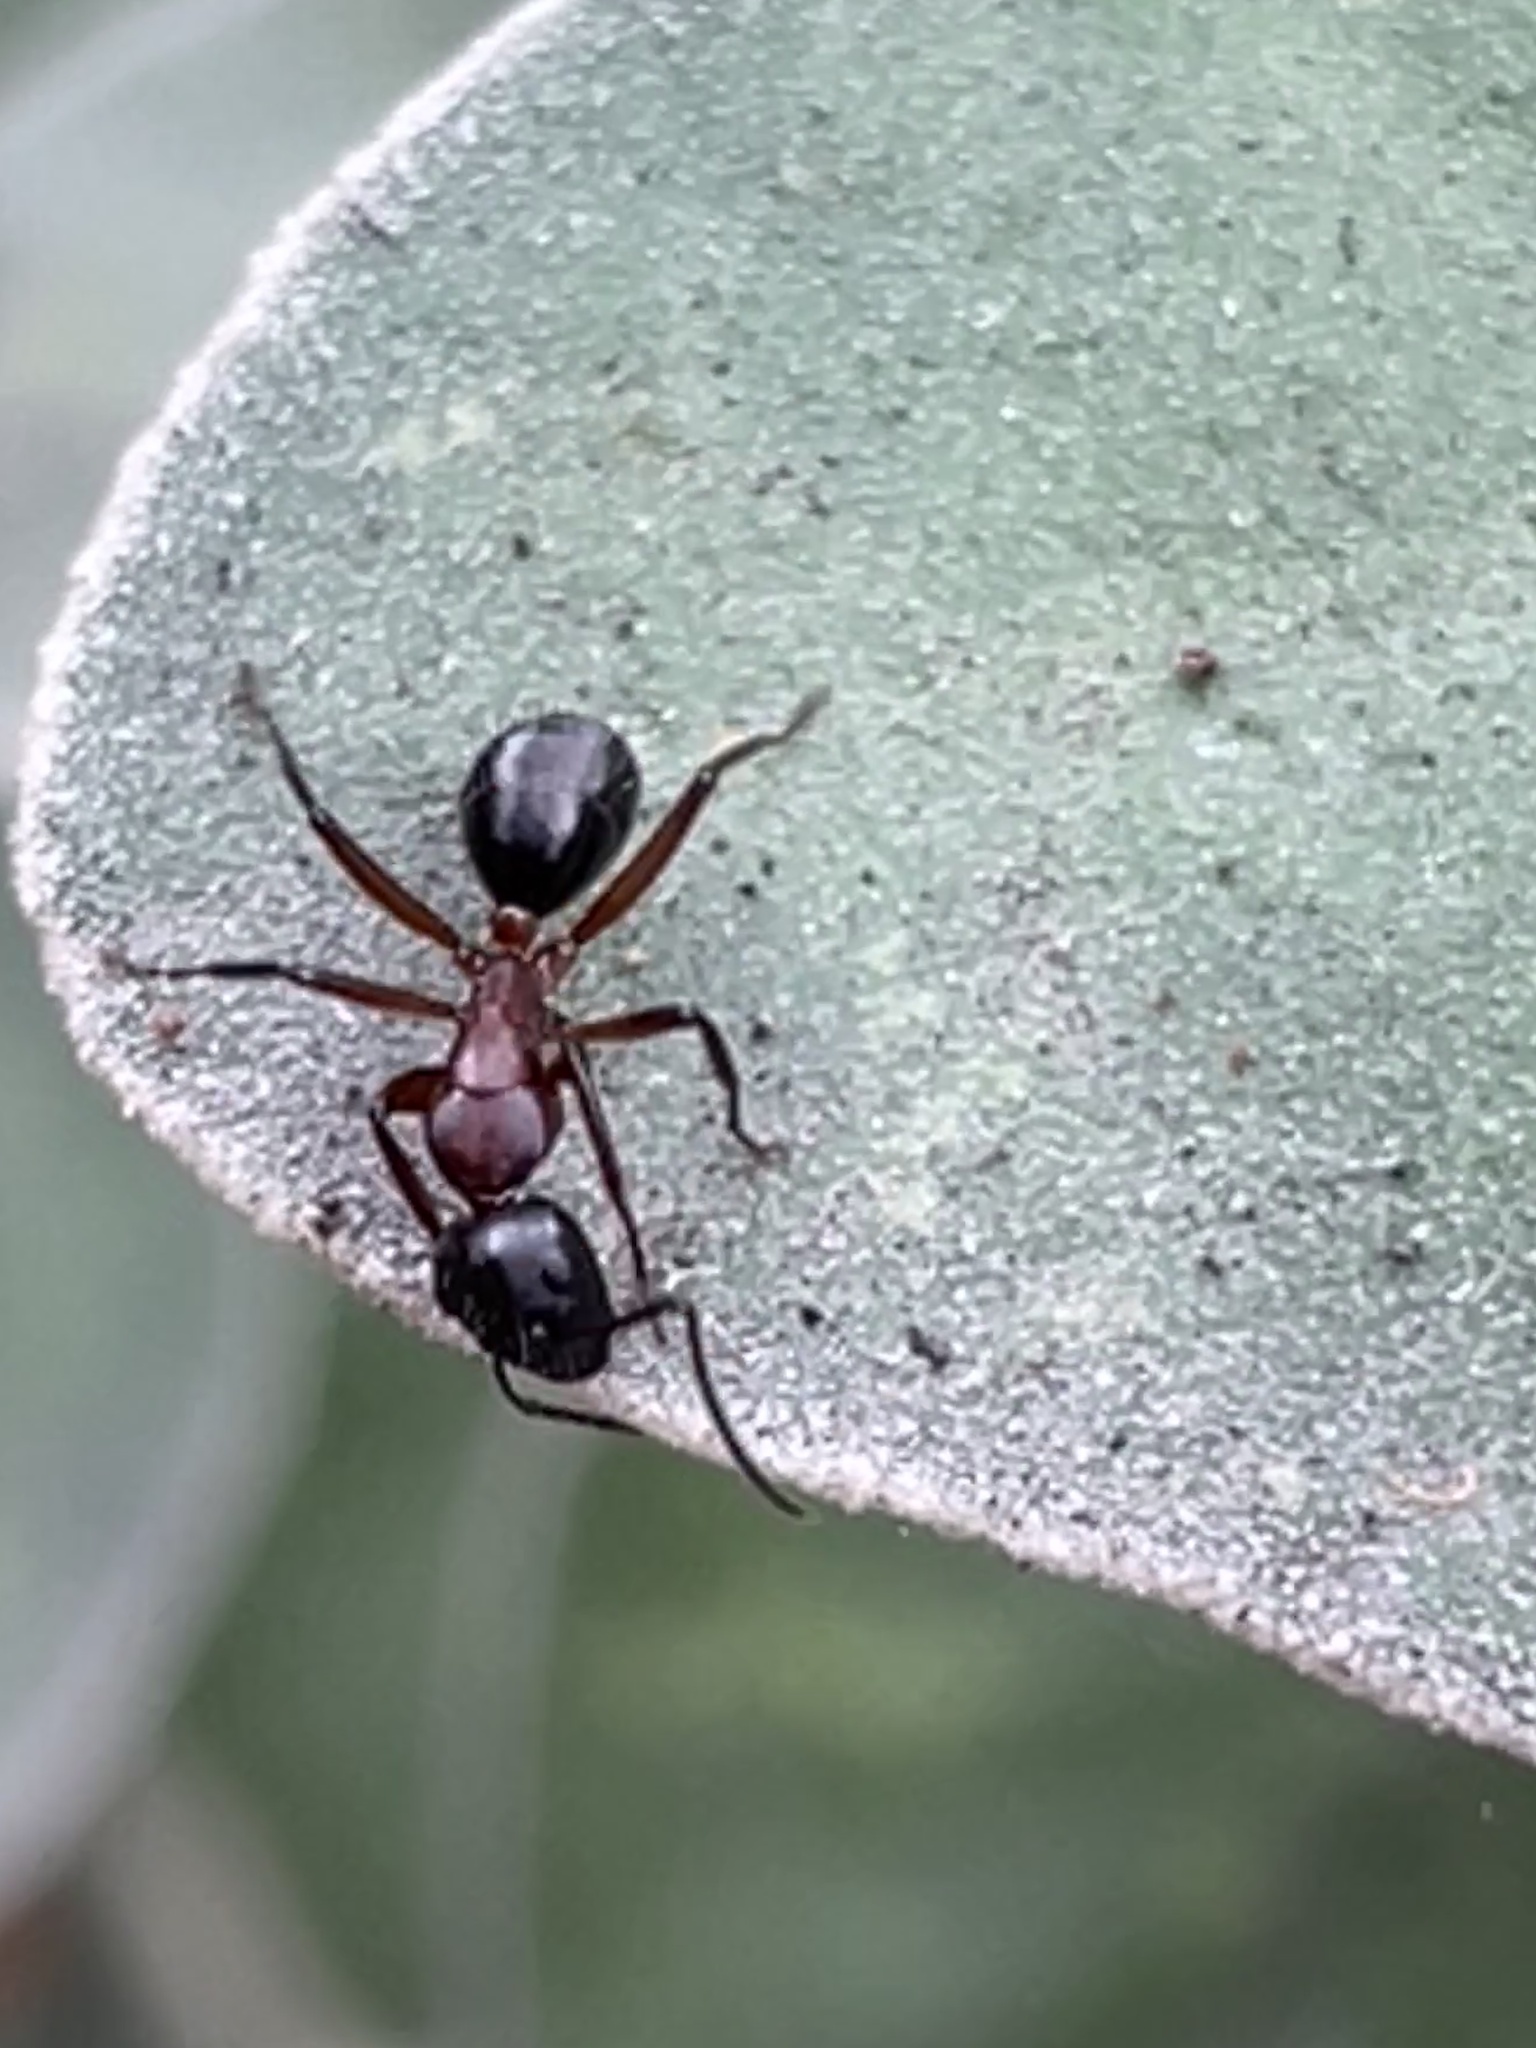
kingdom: Animalia
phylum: Arthropoda
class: Insecta
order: Hymenoptera
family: Formicidae
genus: Camponotus
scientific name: Camponotus innexus
